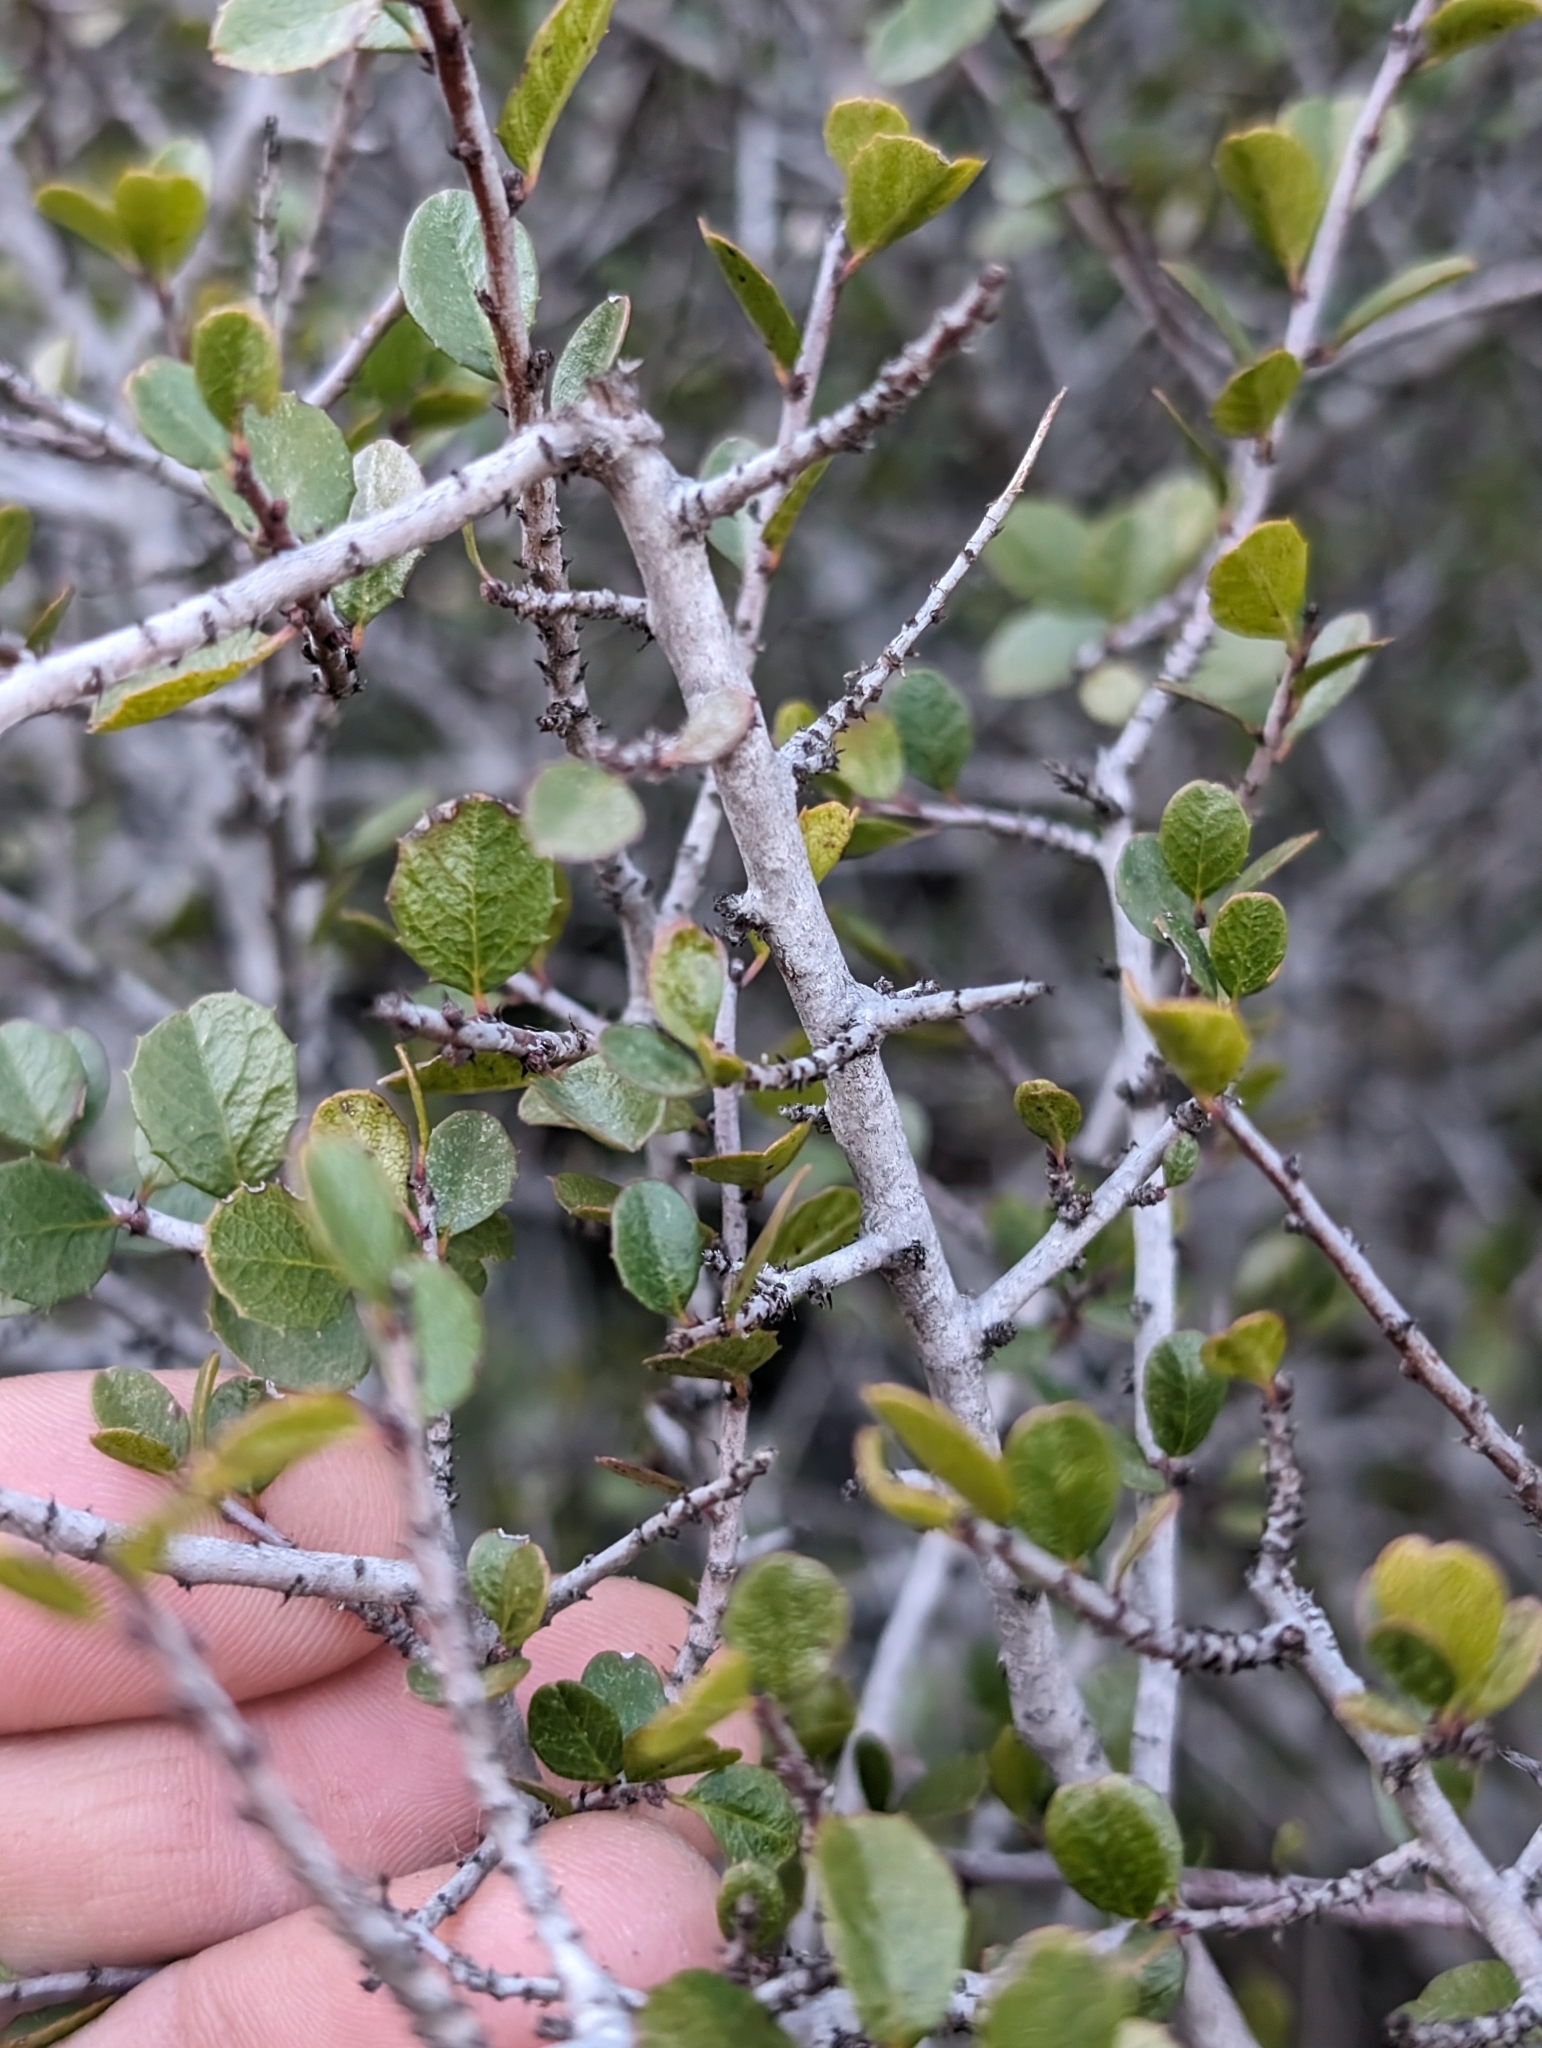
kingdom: Plantae
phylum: Tracheophyta
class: Magnoliopsida
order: Rosales
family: Rhamnaceae
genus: Endotropis
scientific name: Endotropis crocea
